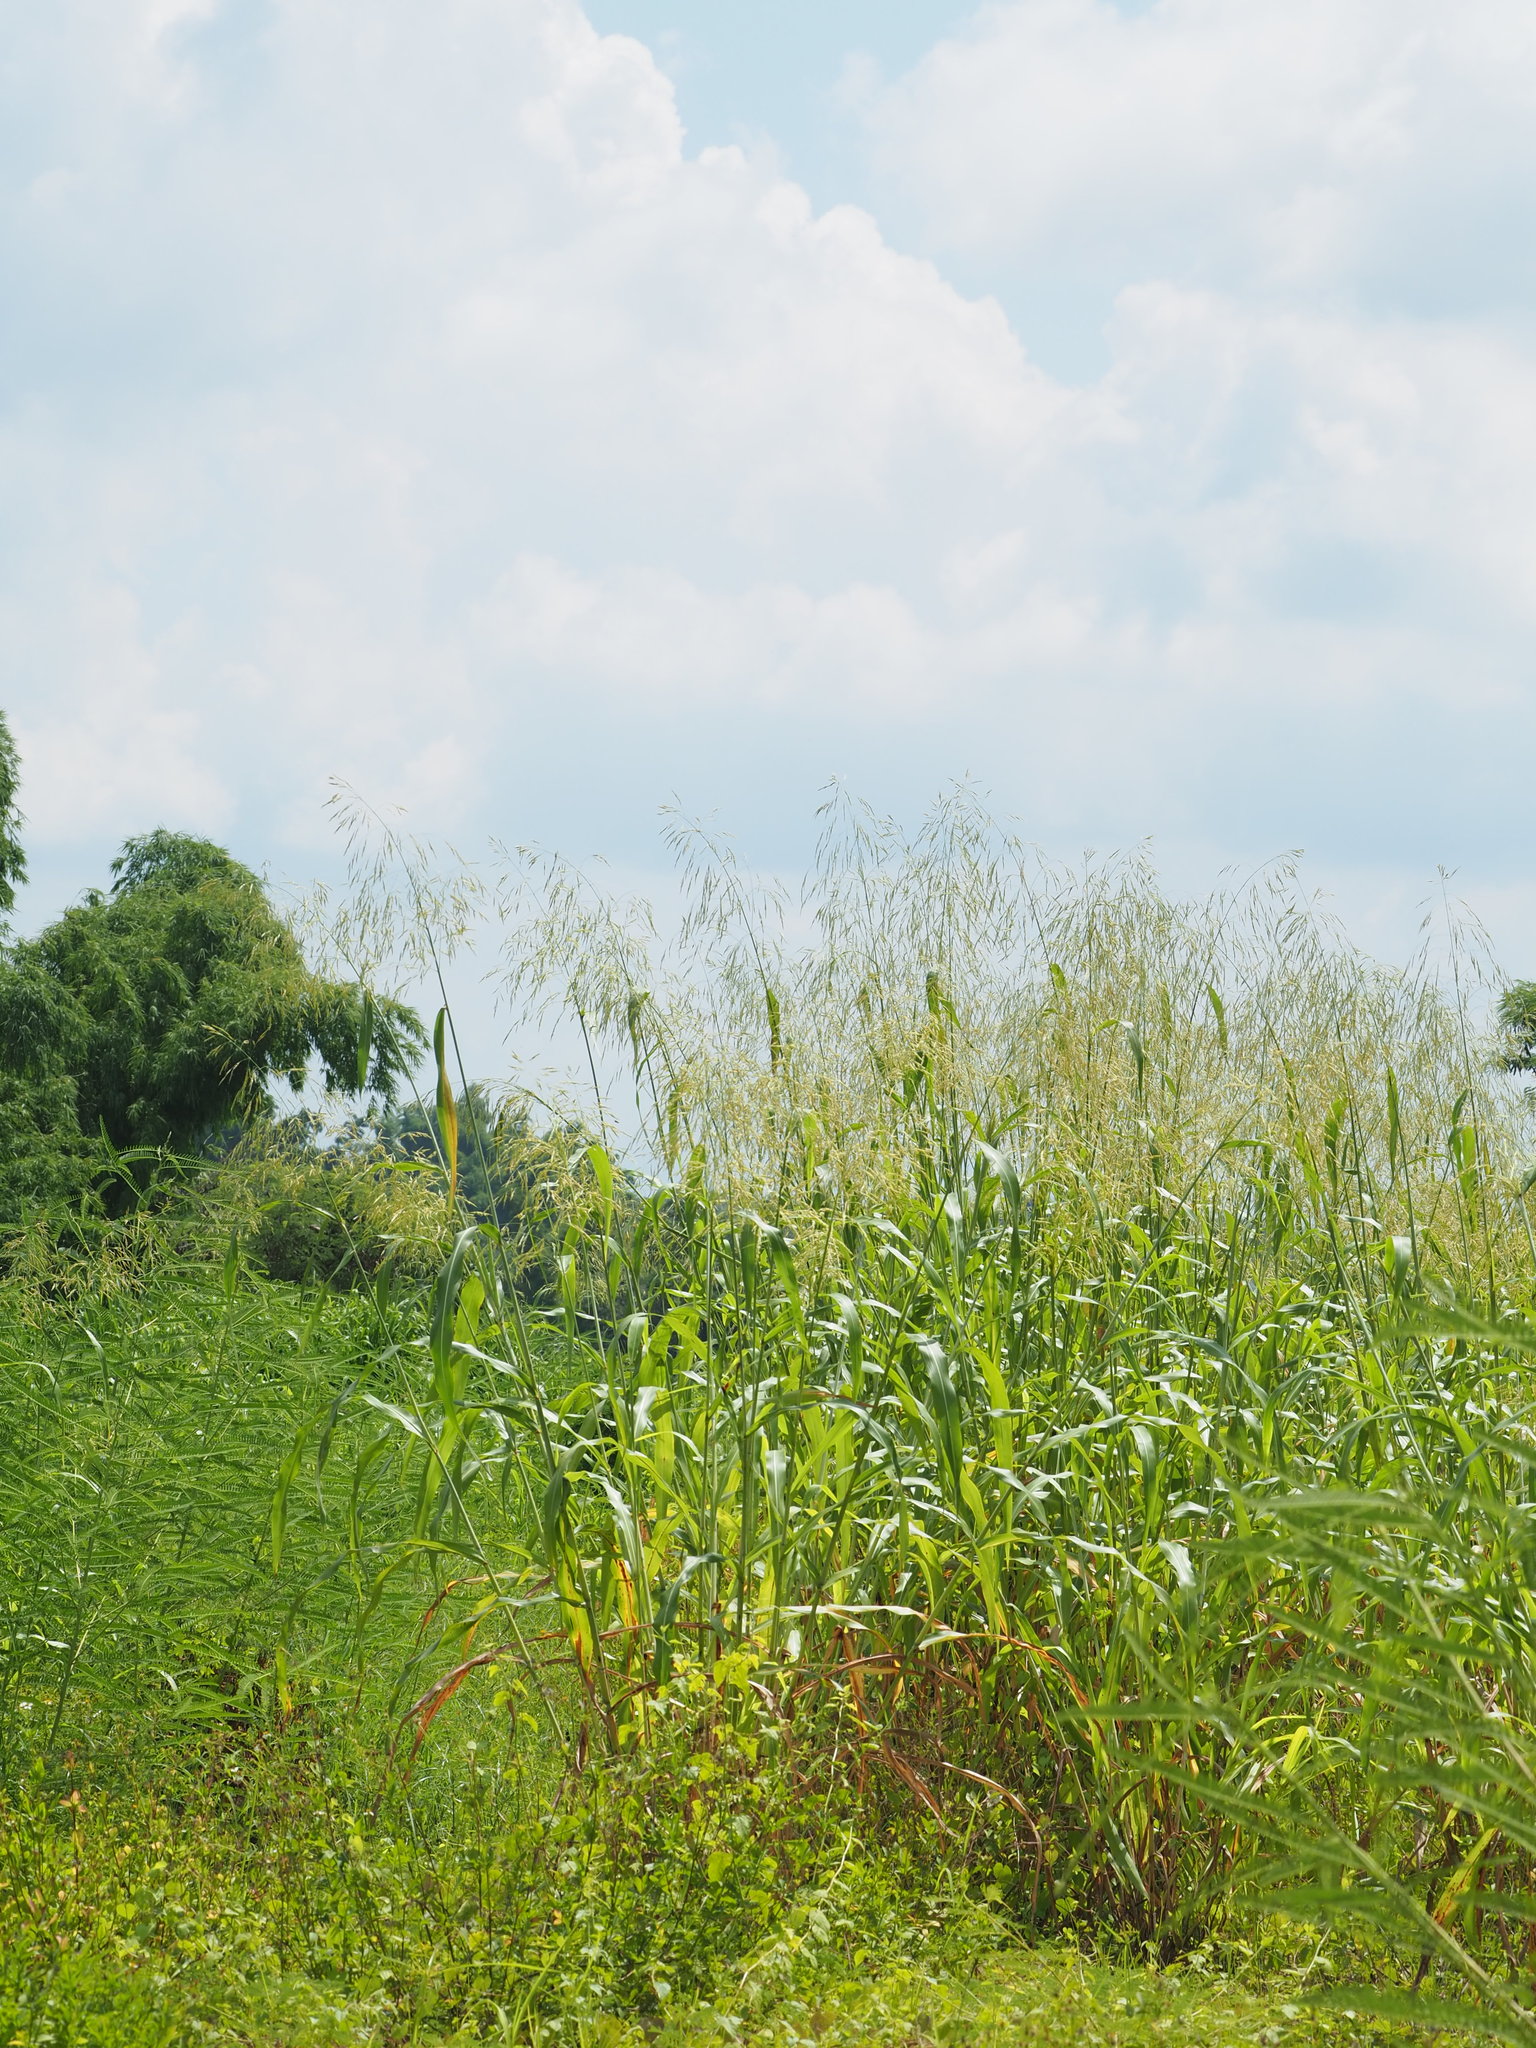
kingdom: Plantae
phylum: Tracheophyta
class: Liliopsida
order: Poales
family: Poaceae
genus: Sorghum
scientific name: Sorghum arundinaceum
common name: Sorghum
